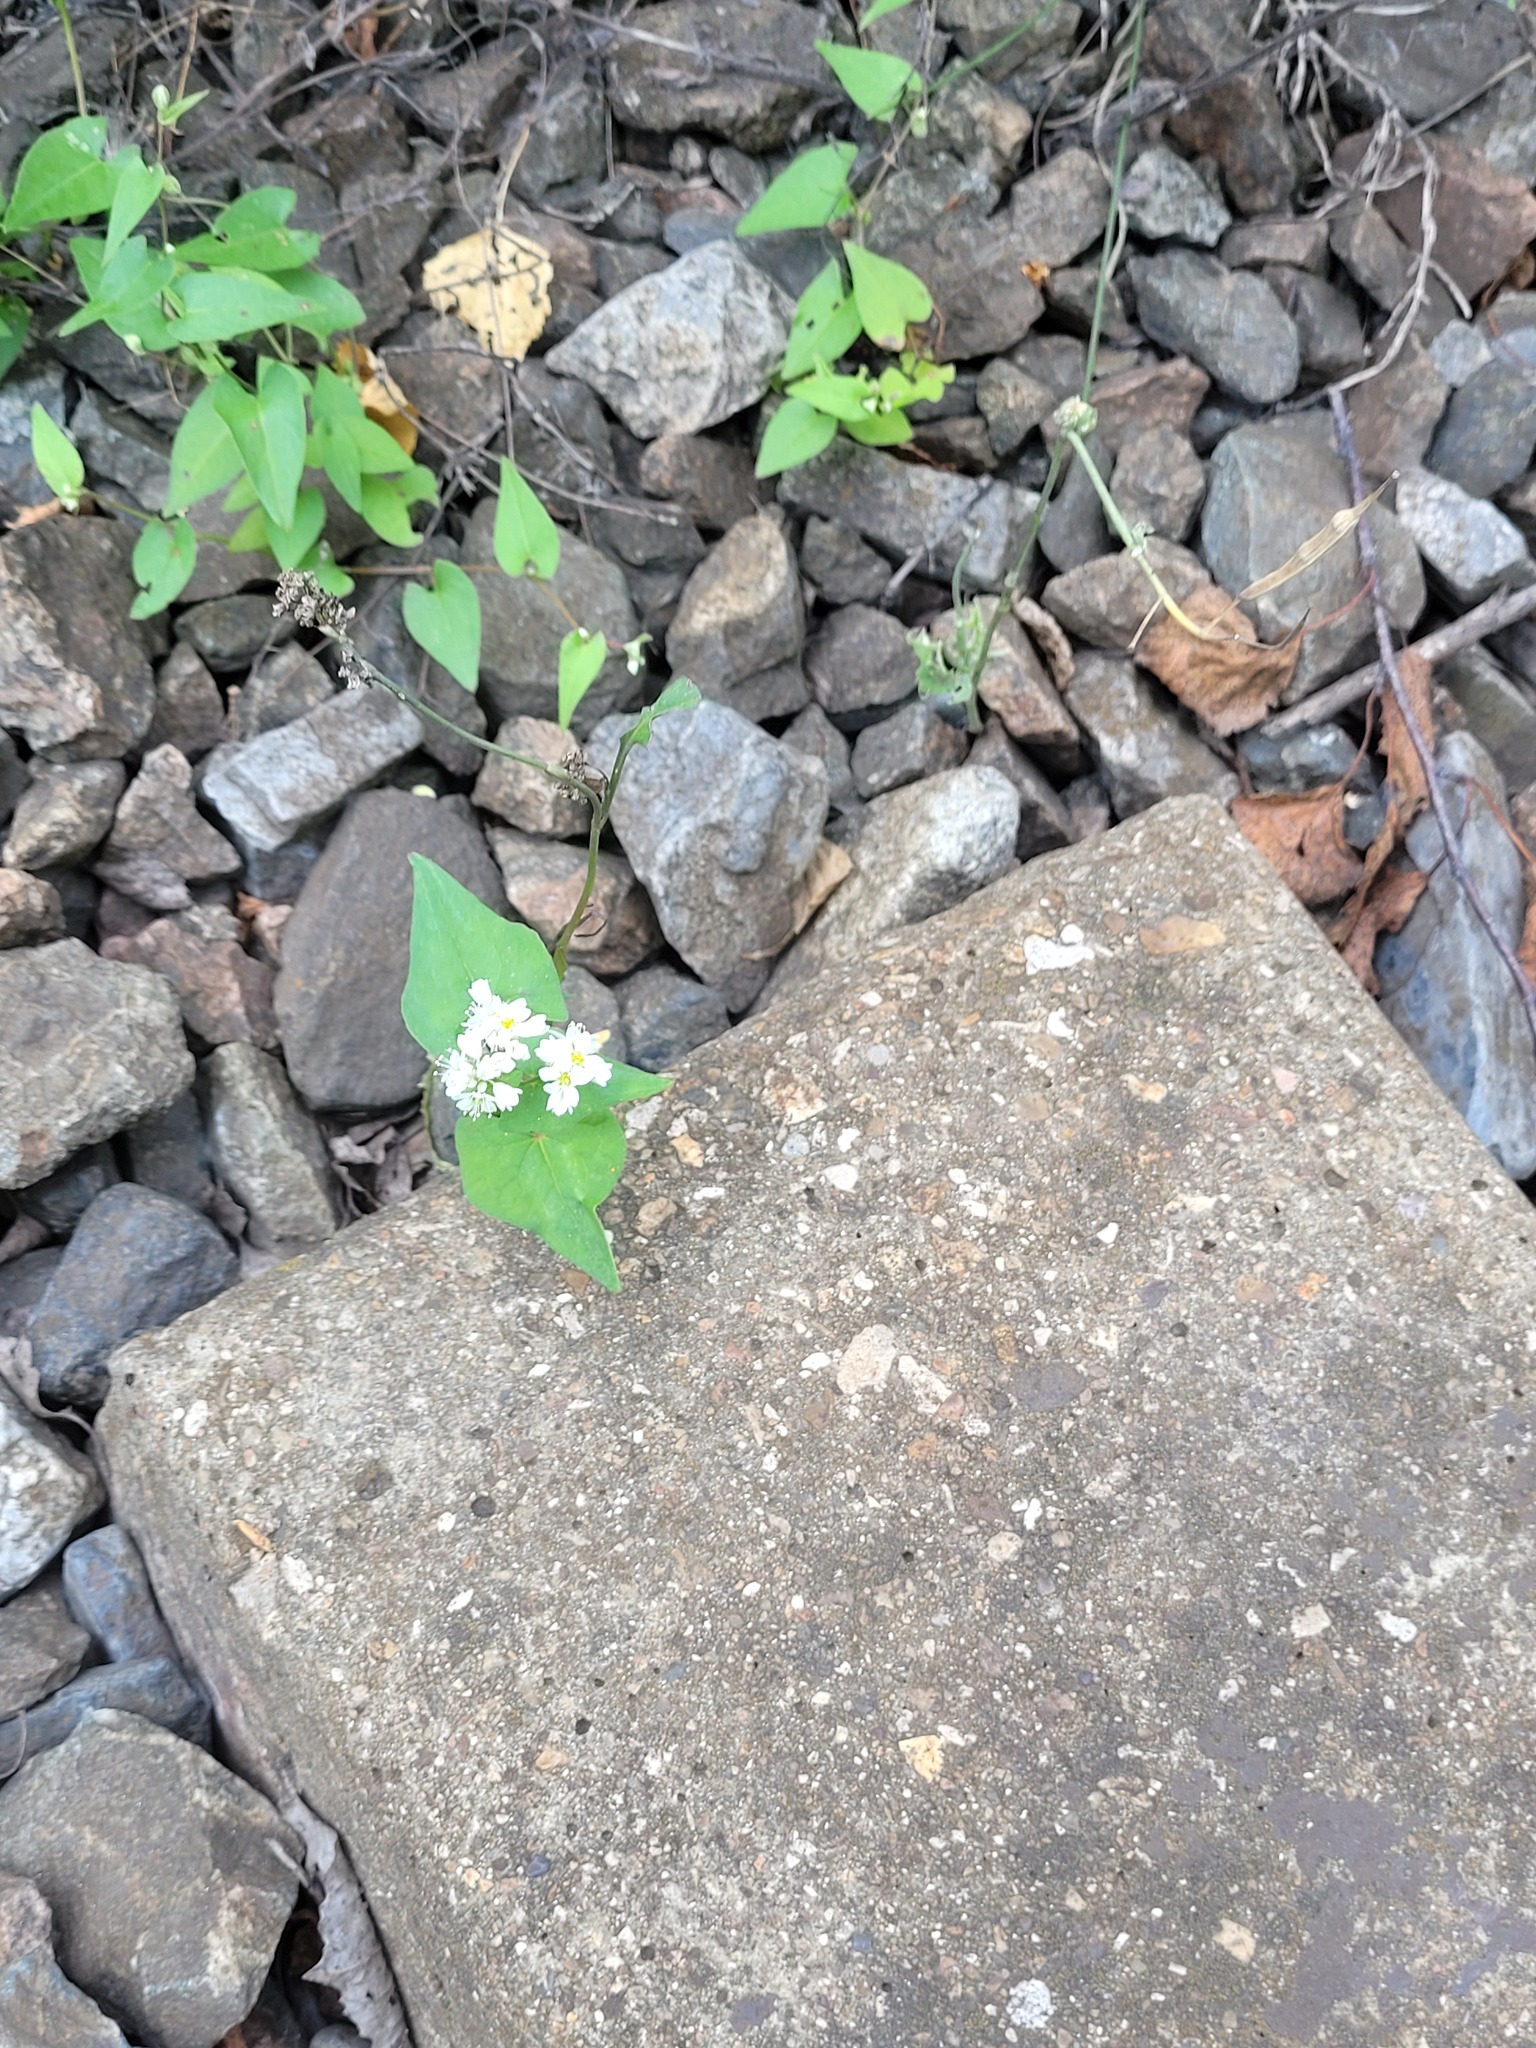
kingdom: Plantae
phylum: Tracheophyta
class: Magnoliopsida
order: Caryophyllales
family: Polygonaceae
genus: Fagopyrum
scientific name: Fagopyrum esculentum
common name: Buckwheat
